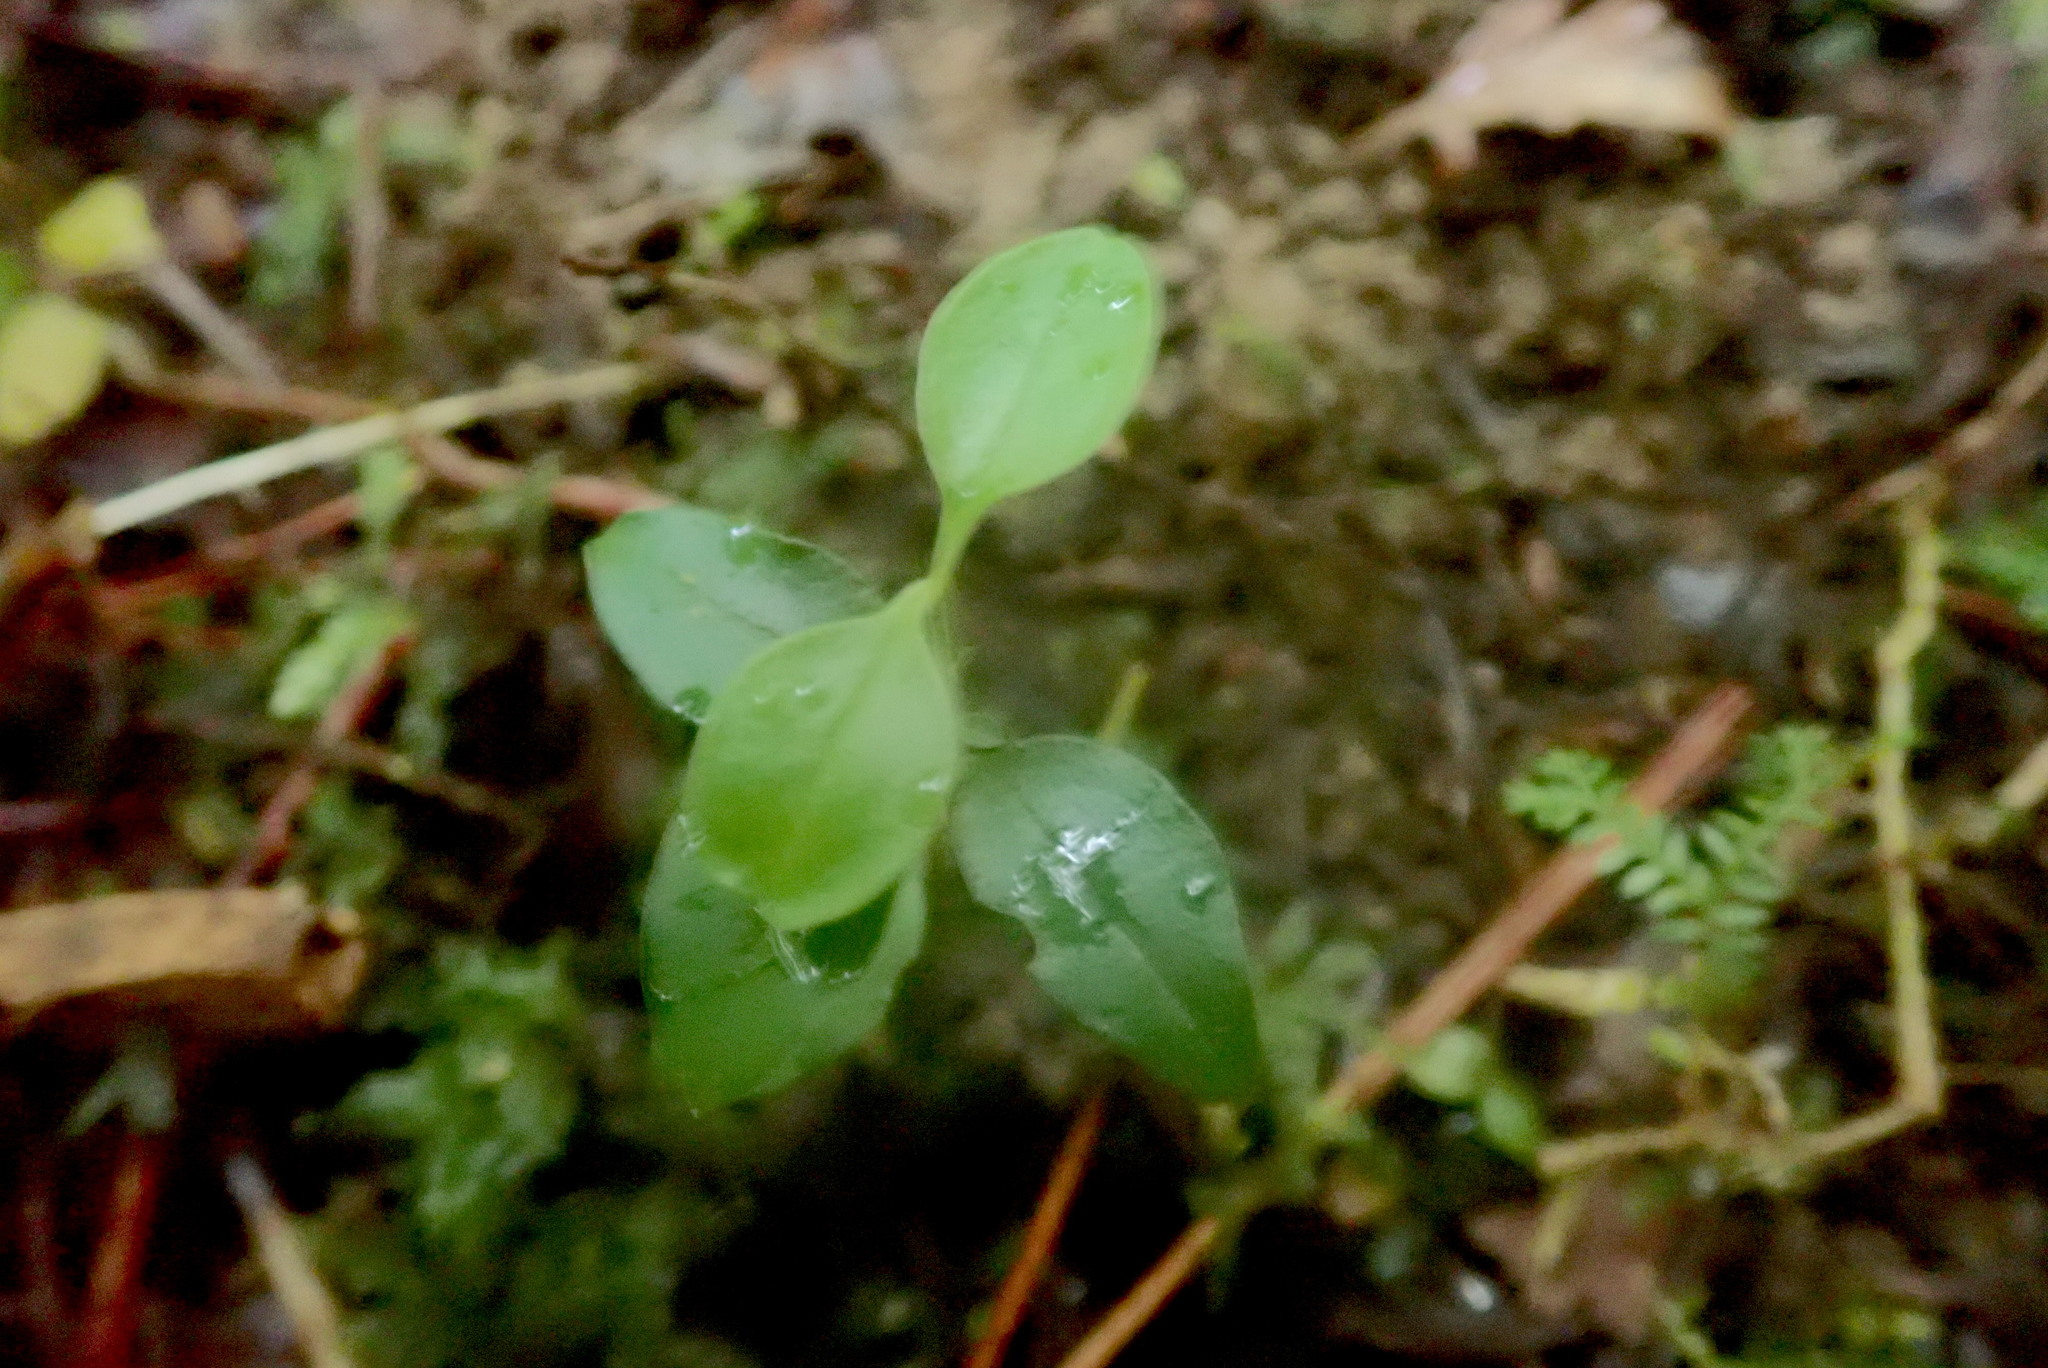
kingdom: Plantae
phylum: Tracheophyta
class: Magnoliopsida
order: Lamiales
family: Oleaceae
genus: Ligustrum
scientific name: Ligustrum lucidum
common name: Glossy privet
